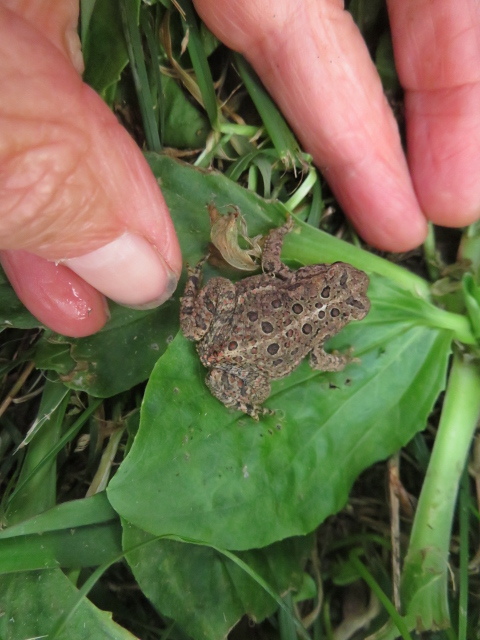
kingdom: Animalia
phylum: Chordata
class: Amphibia
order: Anura
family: Bufonidae
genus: Anaxyrus
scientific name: Anaxyrus americanus
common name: American toad
